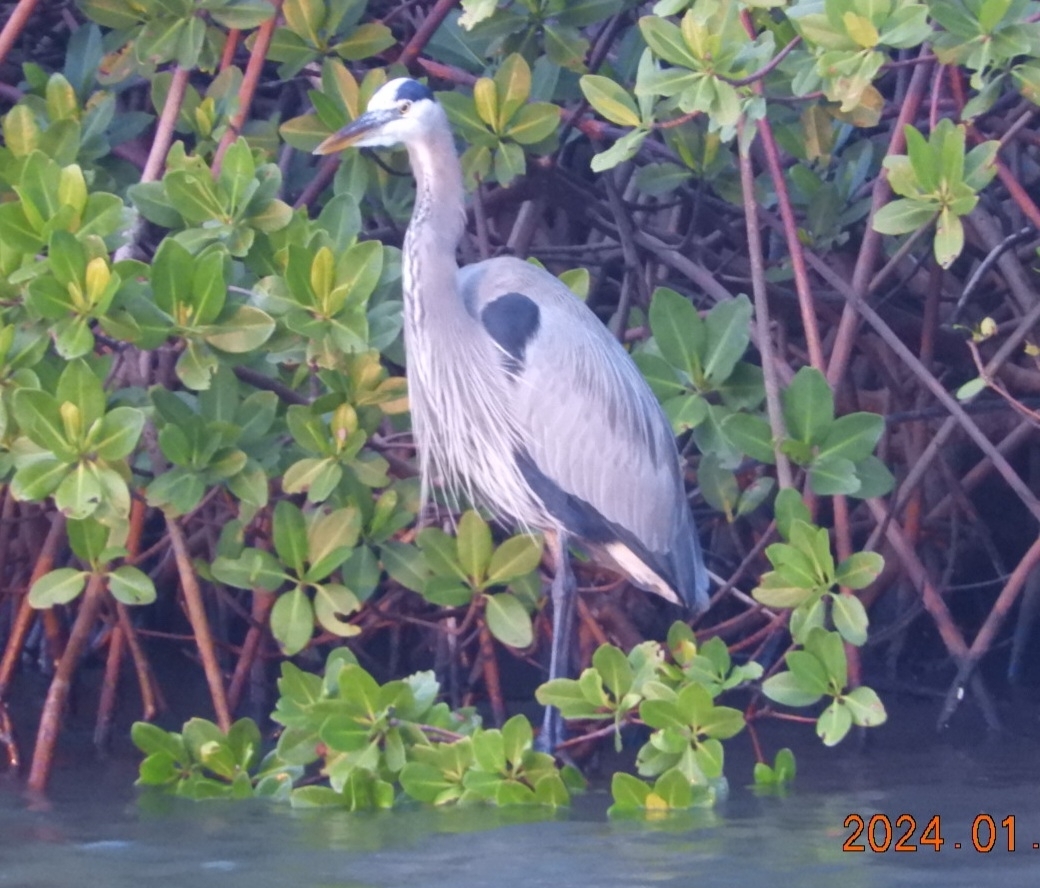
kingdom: Animalia
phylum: Chordata
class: Aves
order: Pelecaniformes
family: Ardeidae
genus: Ardea
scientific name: Ardea herodias
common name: Great blue heron
